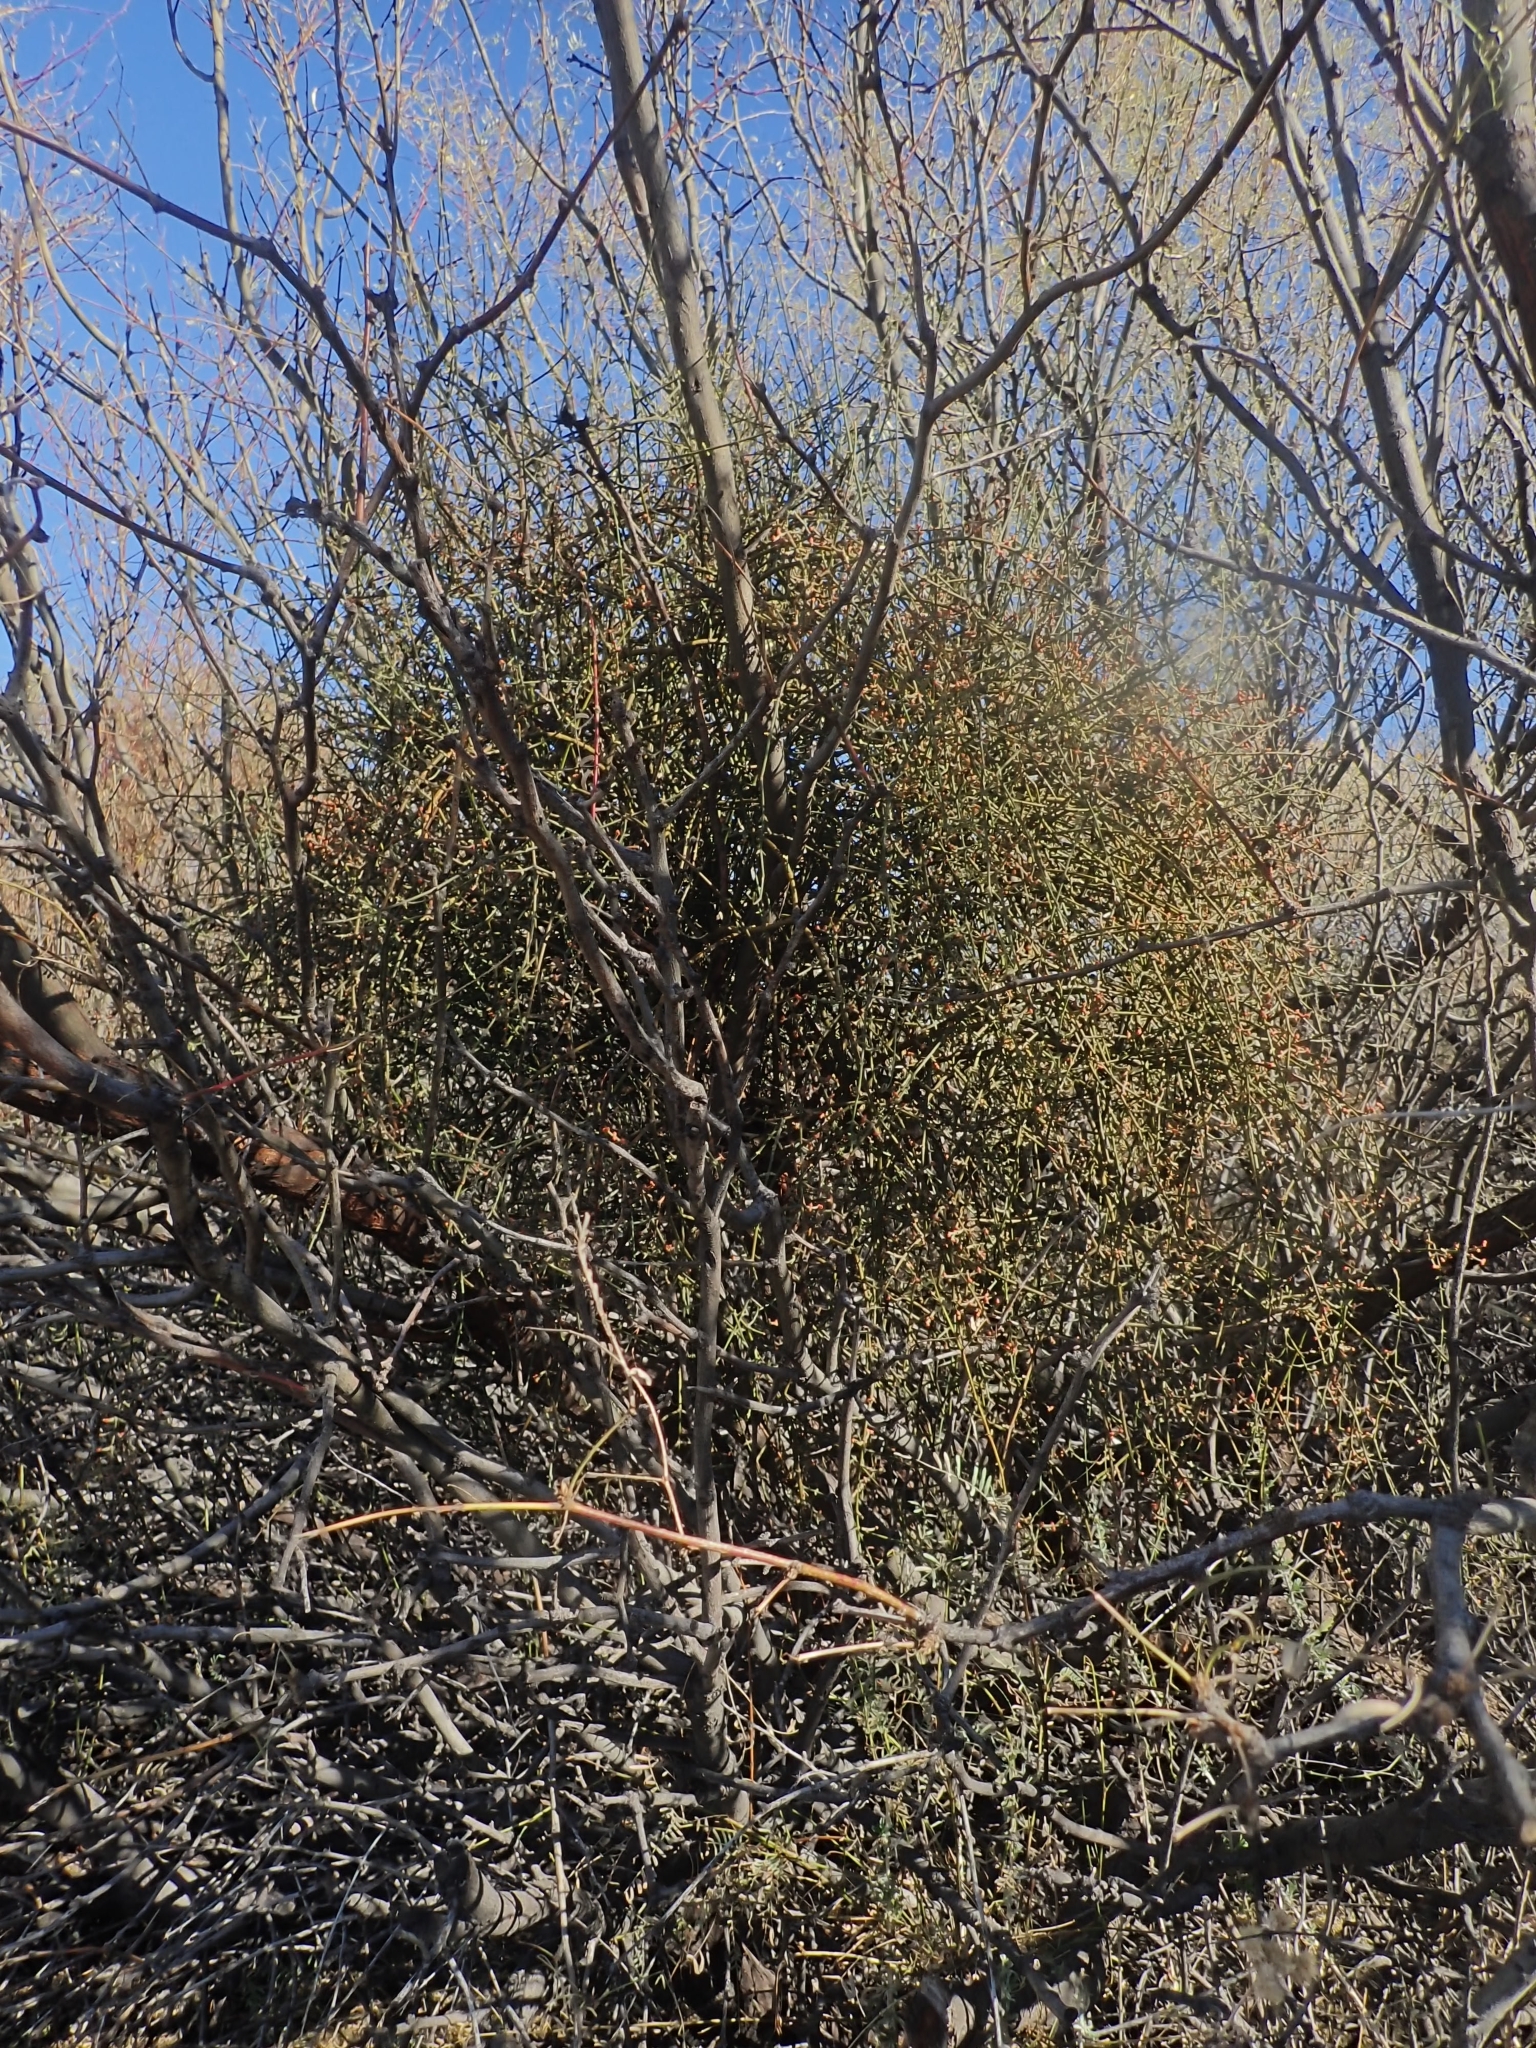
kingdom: Plantae
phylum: Tracheophyta
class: Magnoliopsida
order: Santalales
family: Viscaceae
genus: Phoradendron
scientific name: Phoradendron californicum
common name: Acacia mistletoe
